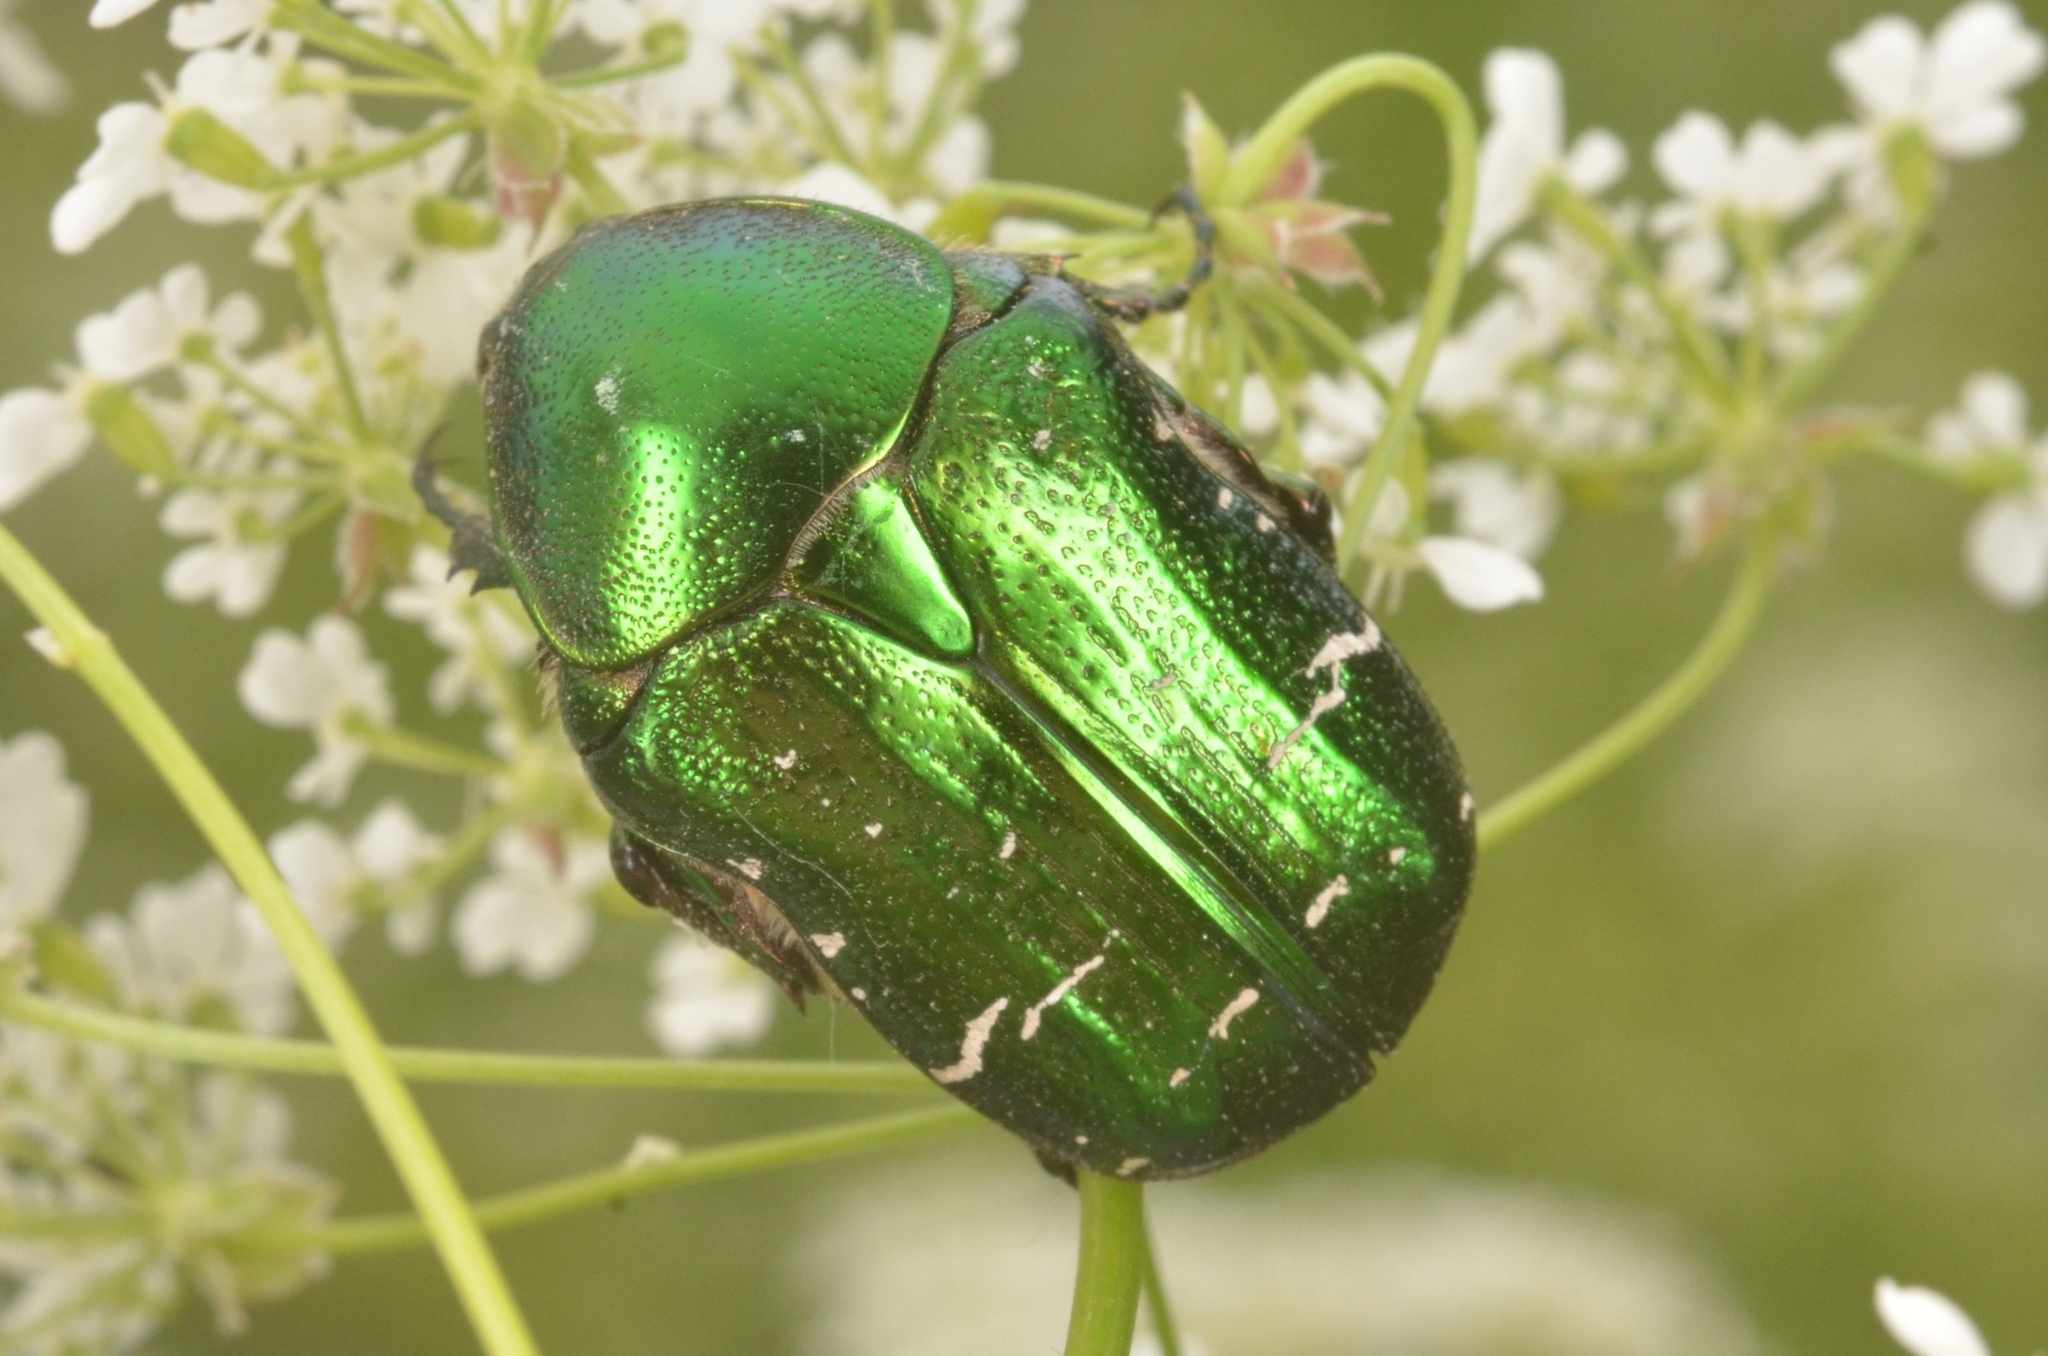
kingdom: Animalia
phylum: Arthropoda
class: Insecta
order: Coleoptera
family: Scarabaeidae
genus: Cetonia
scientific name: Cetonia aurata
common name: Rose chafer
